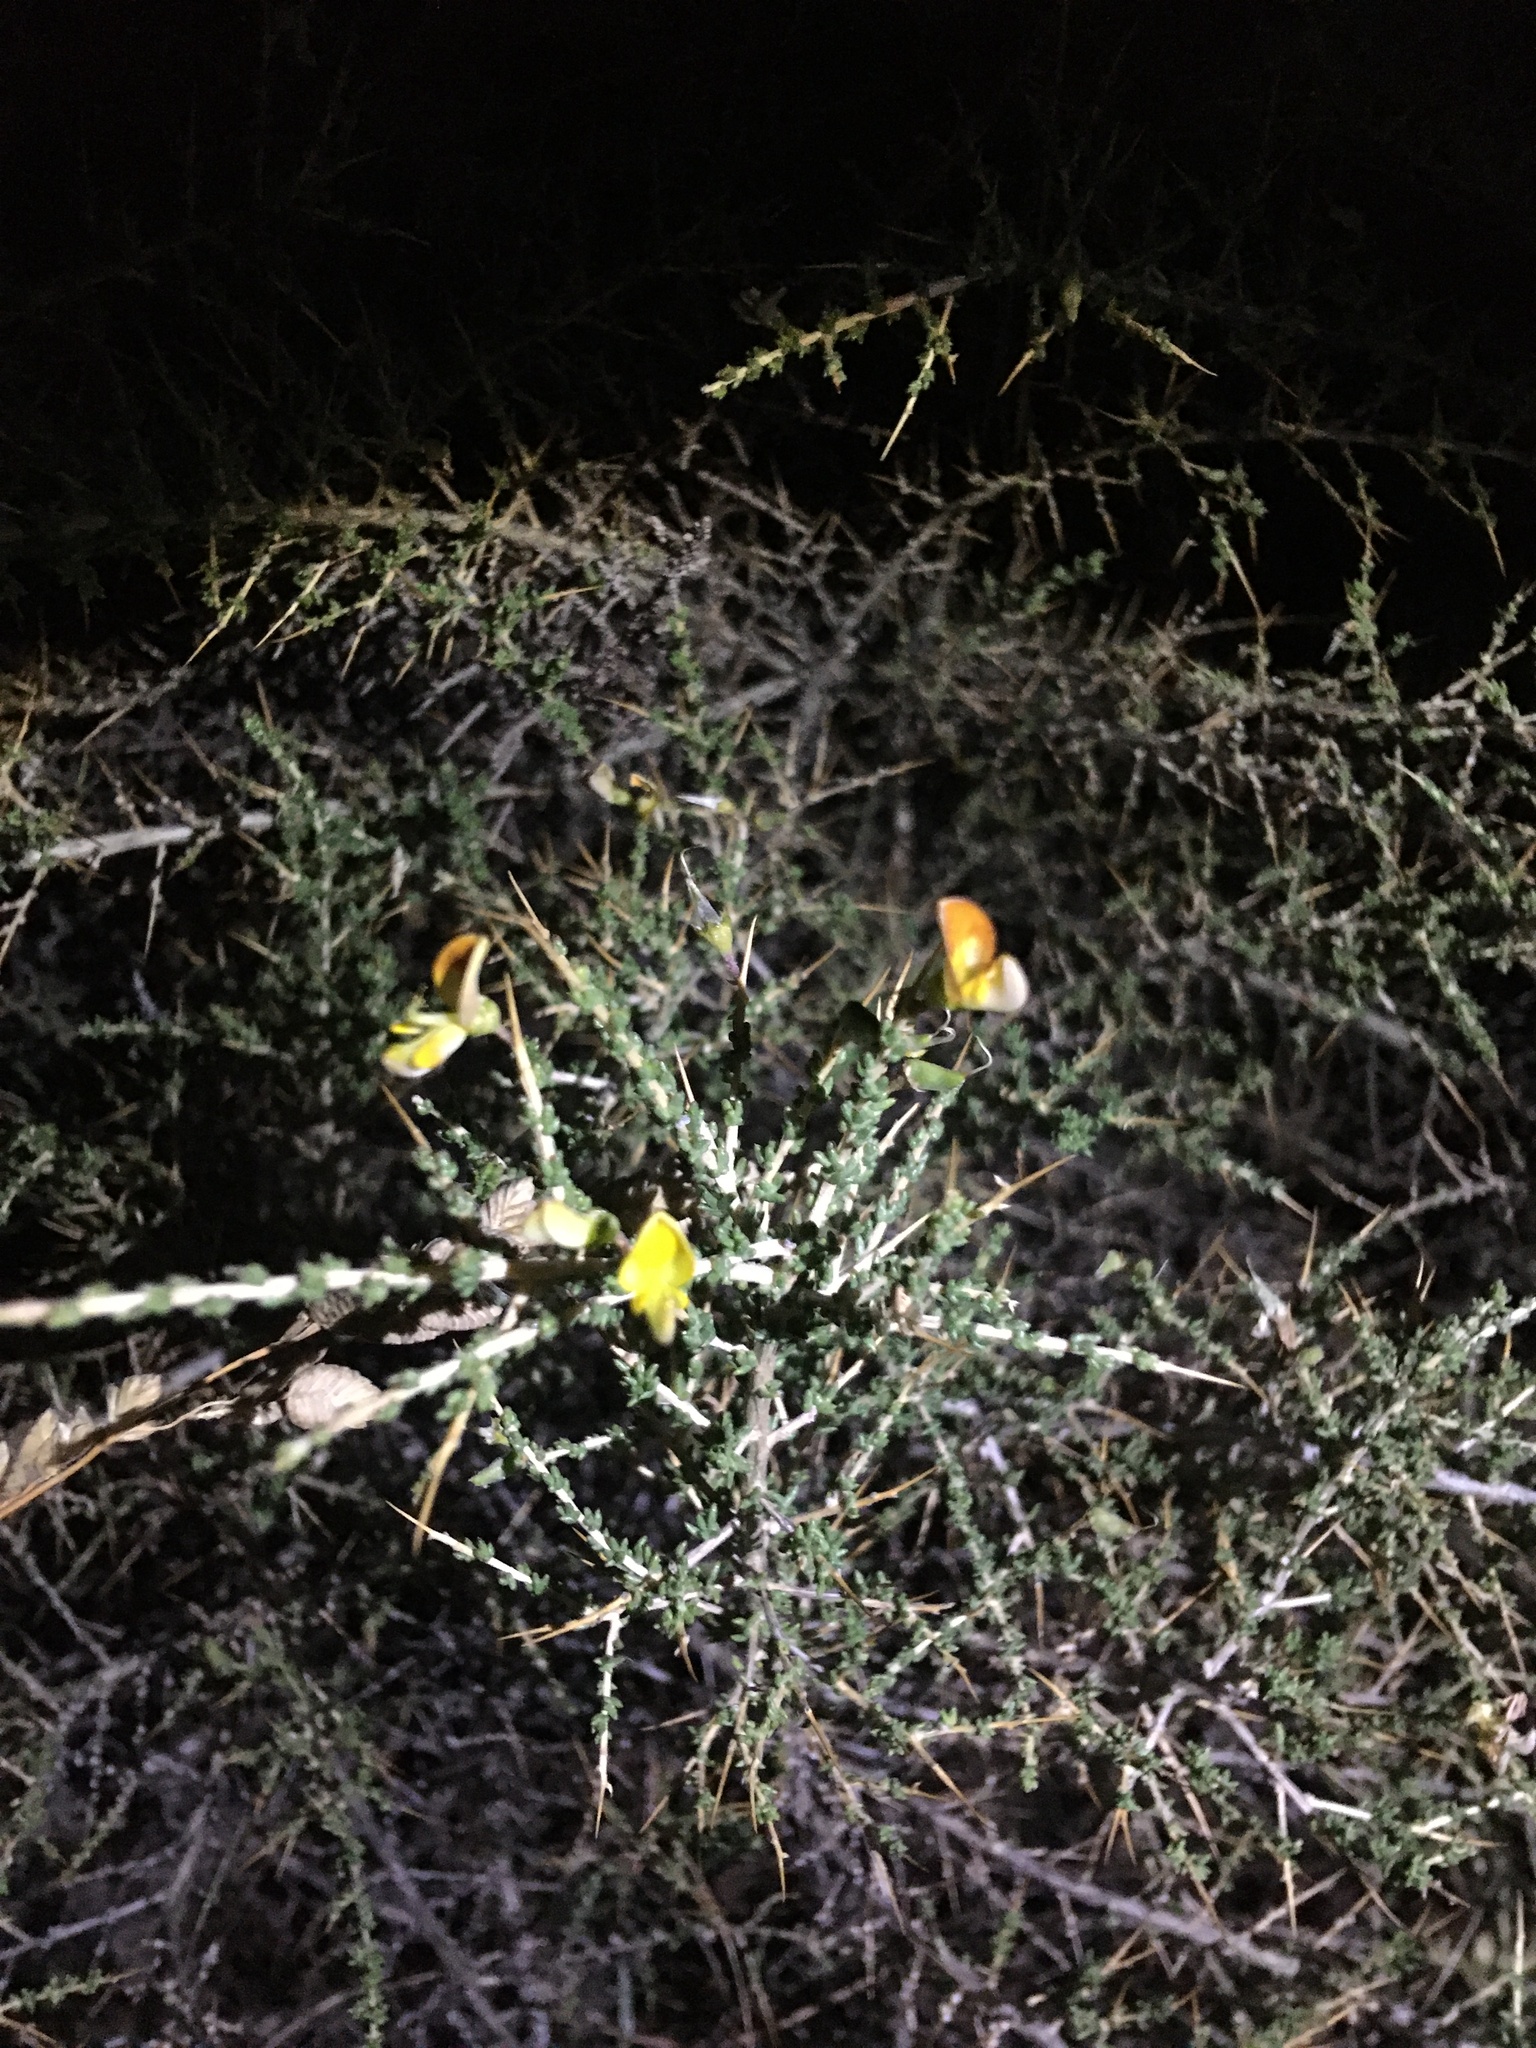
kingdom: Plantae
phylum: Tracheophyta
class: Magnoliopsida
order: Fabales
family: Fabaceae
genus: Aspalathus
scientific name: Aspalathus acuminata
